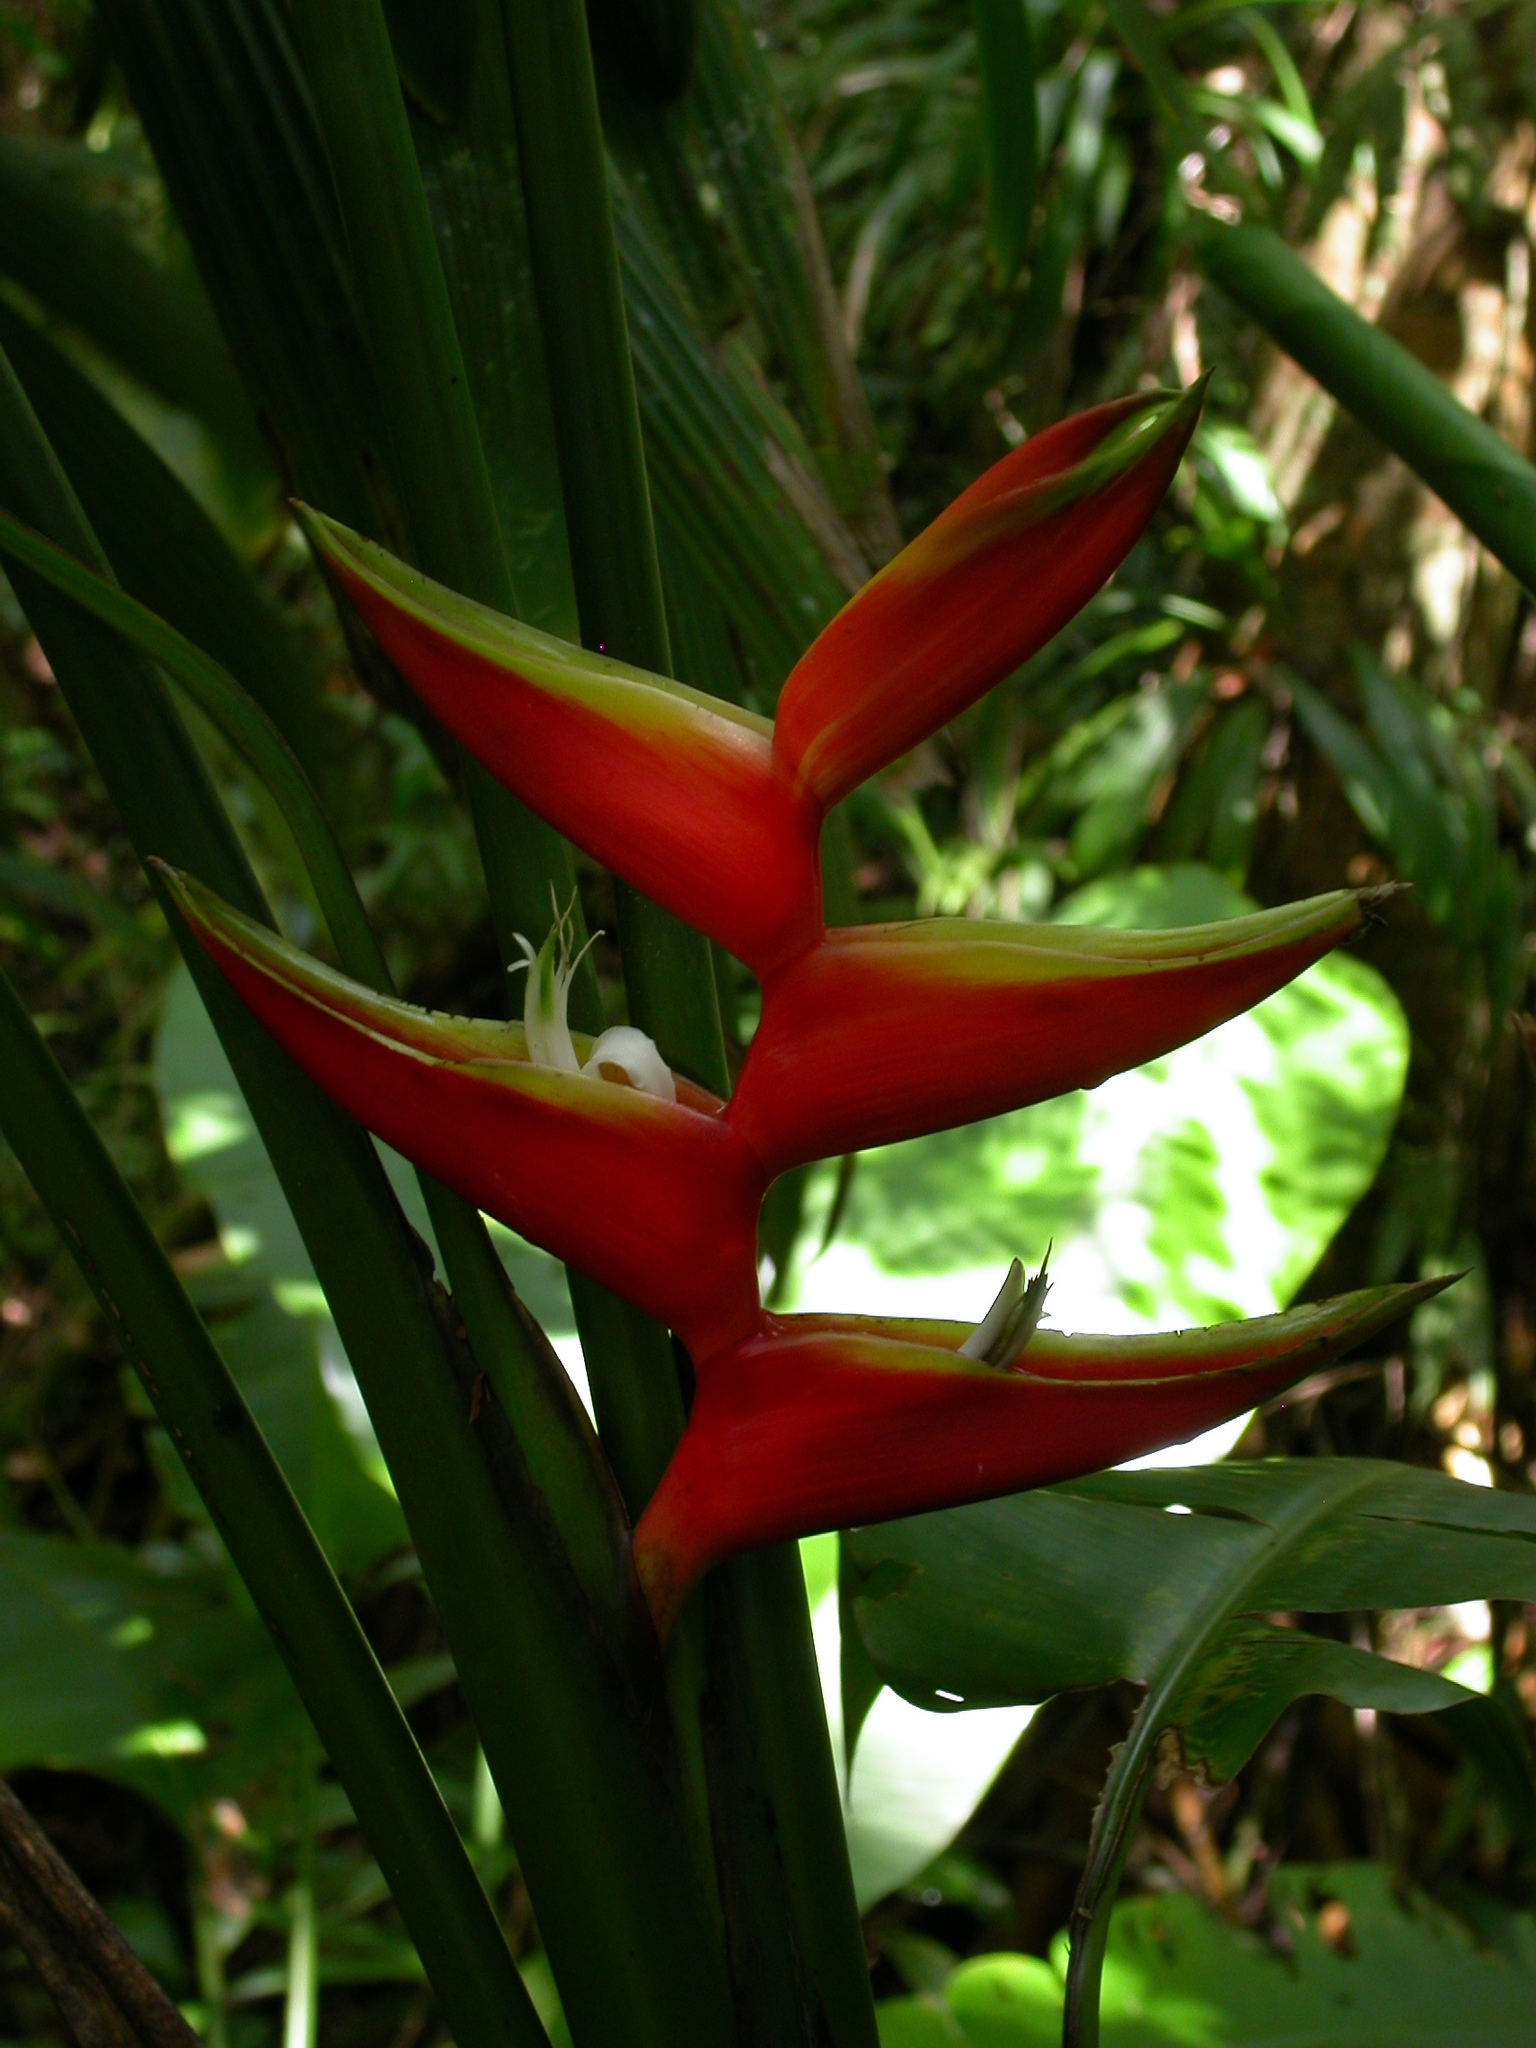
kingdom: Plantae
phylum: Tracheophyta
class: Liliopsida
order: Zingiberales
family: Heliconiaceae
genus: Heliconia
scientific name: Heliconia bihai
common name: Macaw flower
